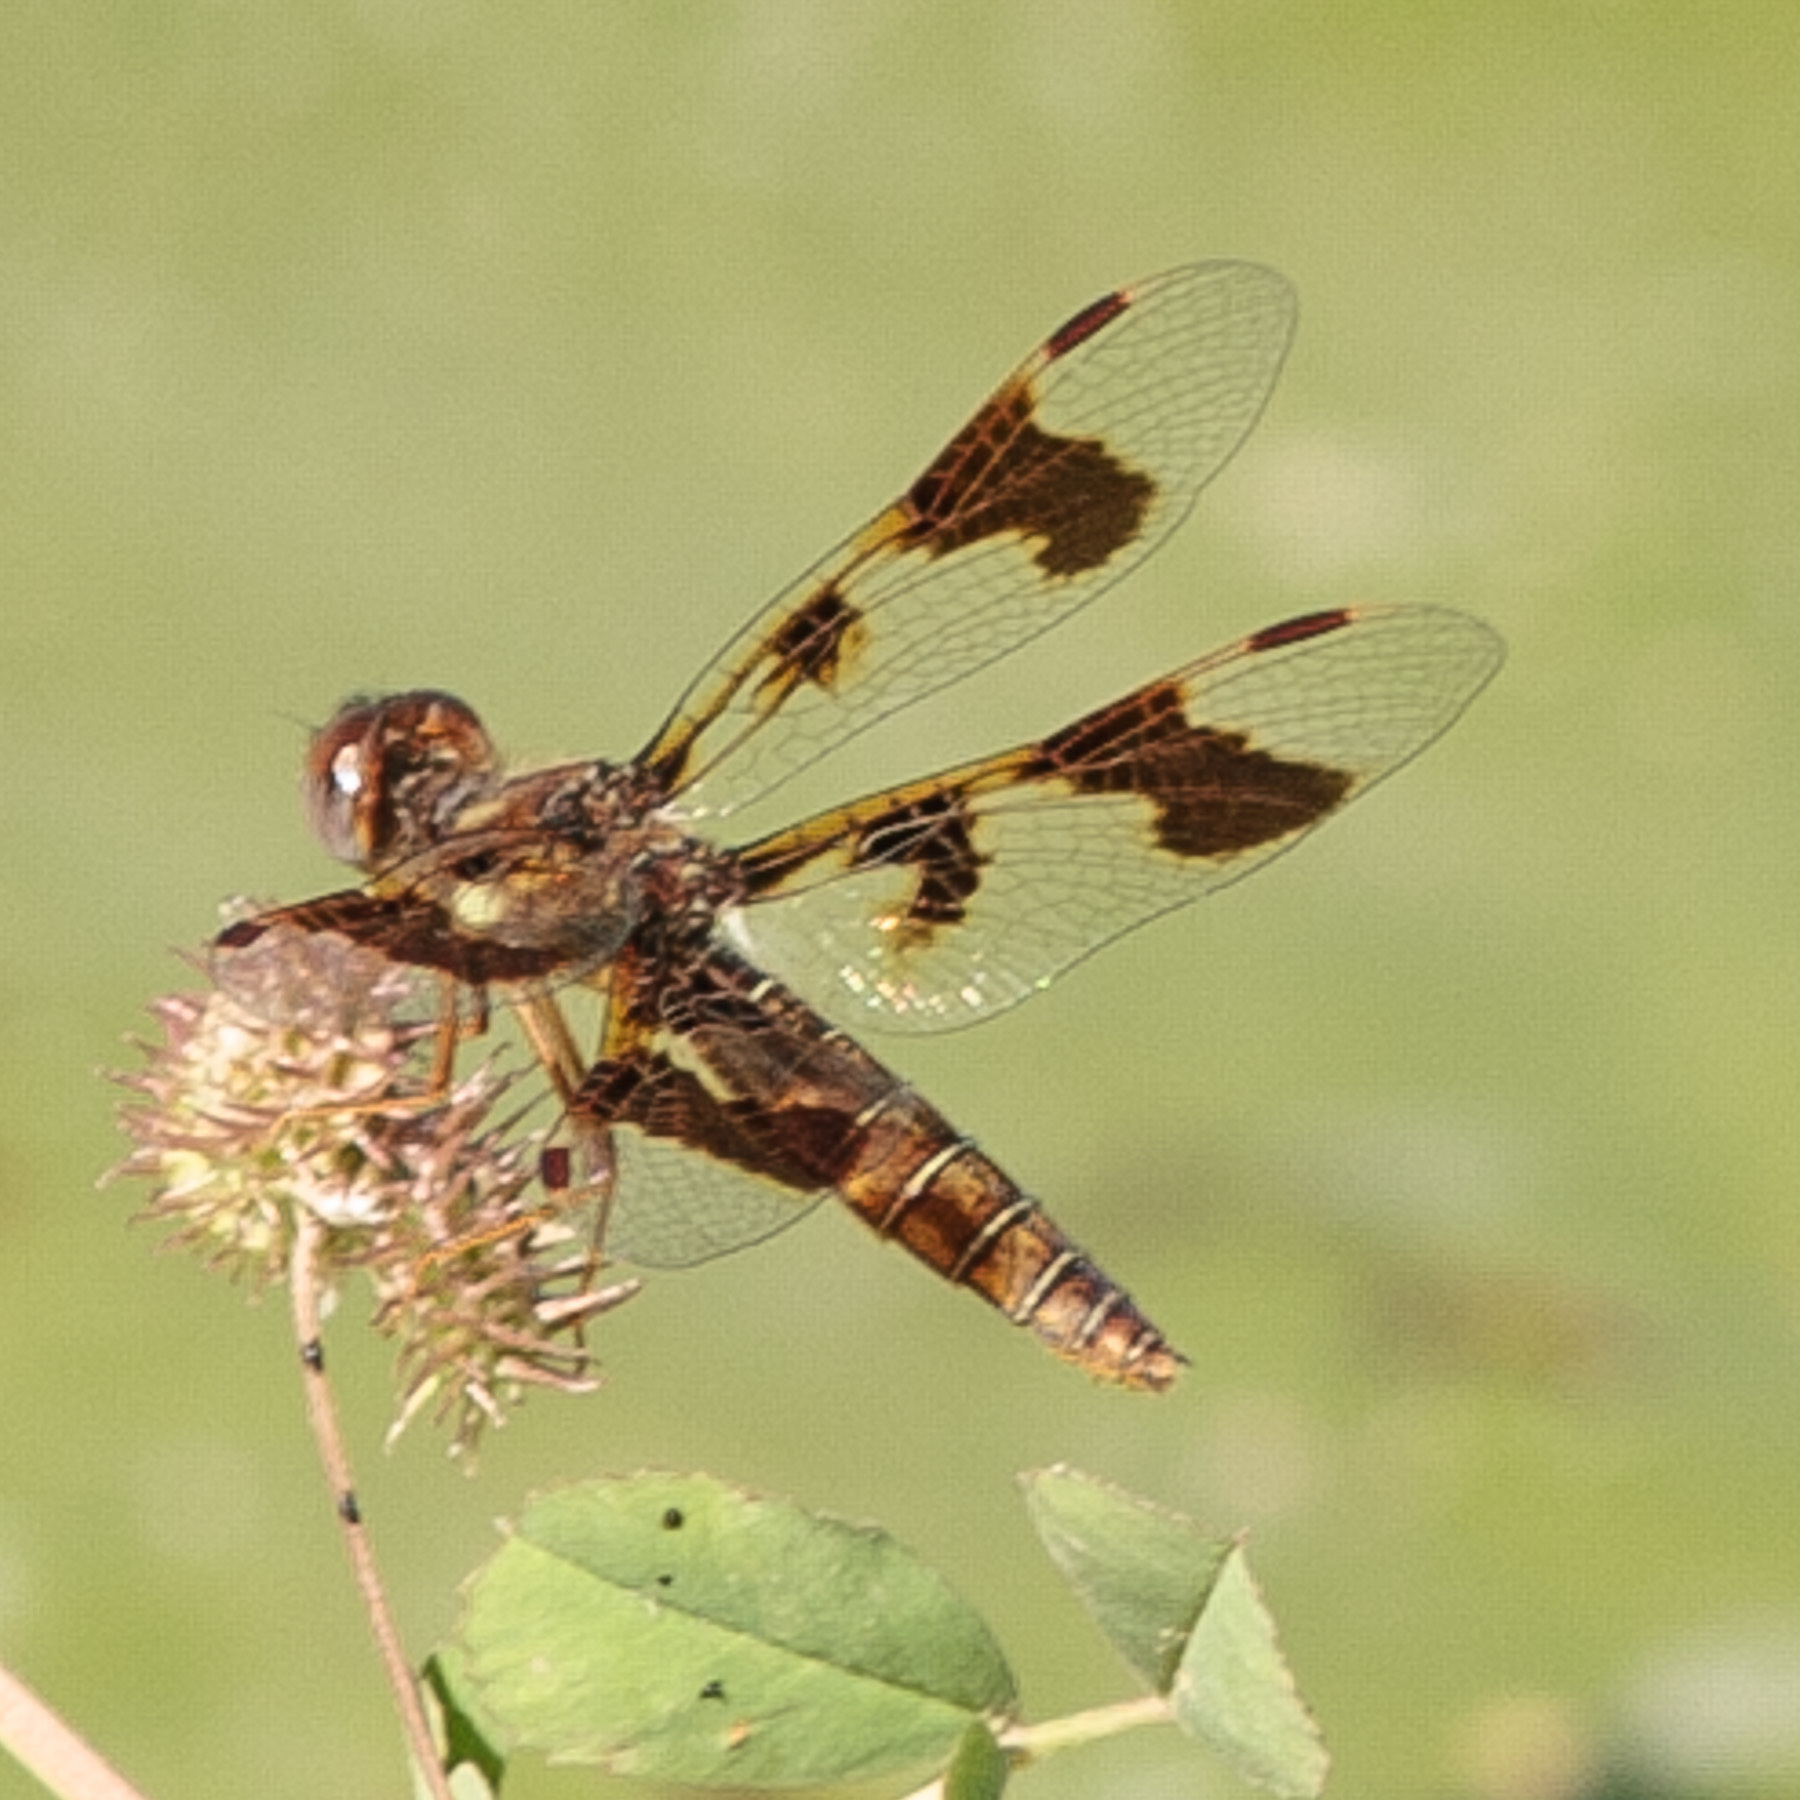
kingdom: Animalia
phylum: Arthropoda
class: Insecta
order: Odonata
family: Libellulidae
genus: Perithemis
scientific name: Perithemis tenera
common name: Eastern amberwing
